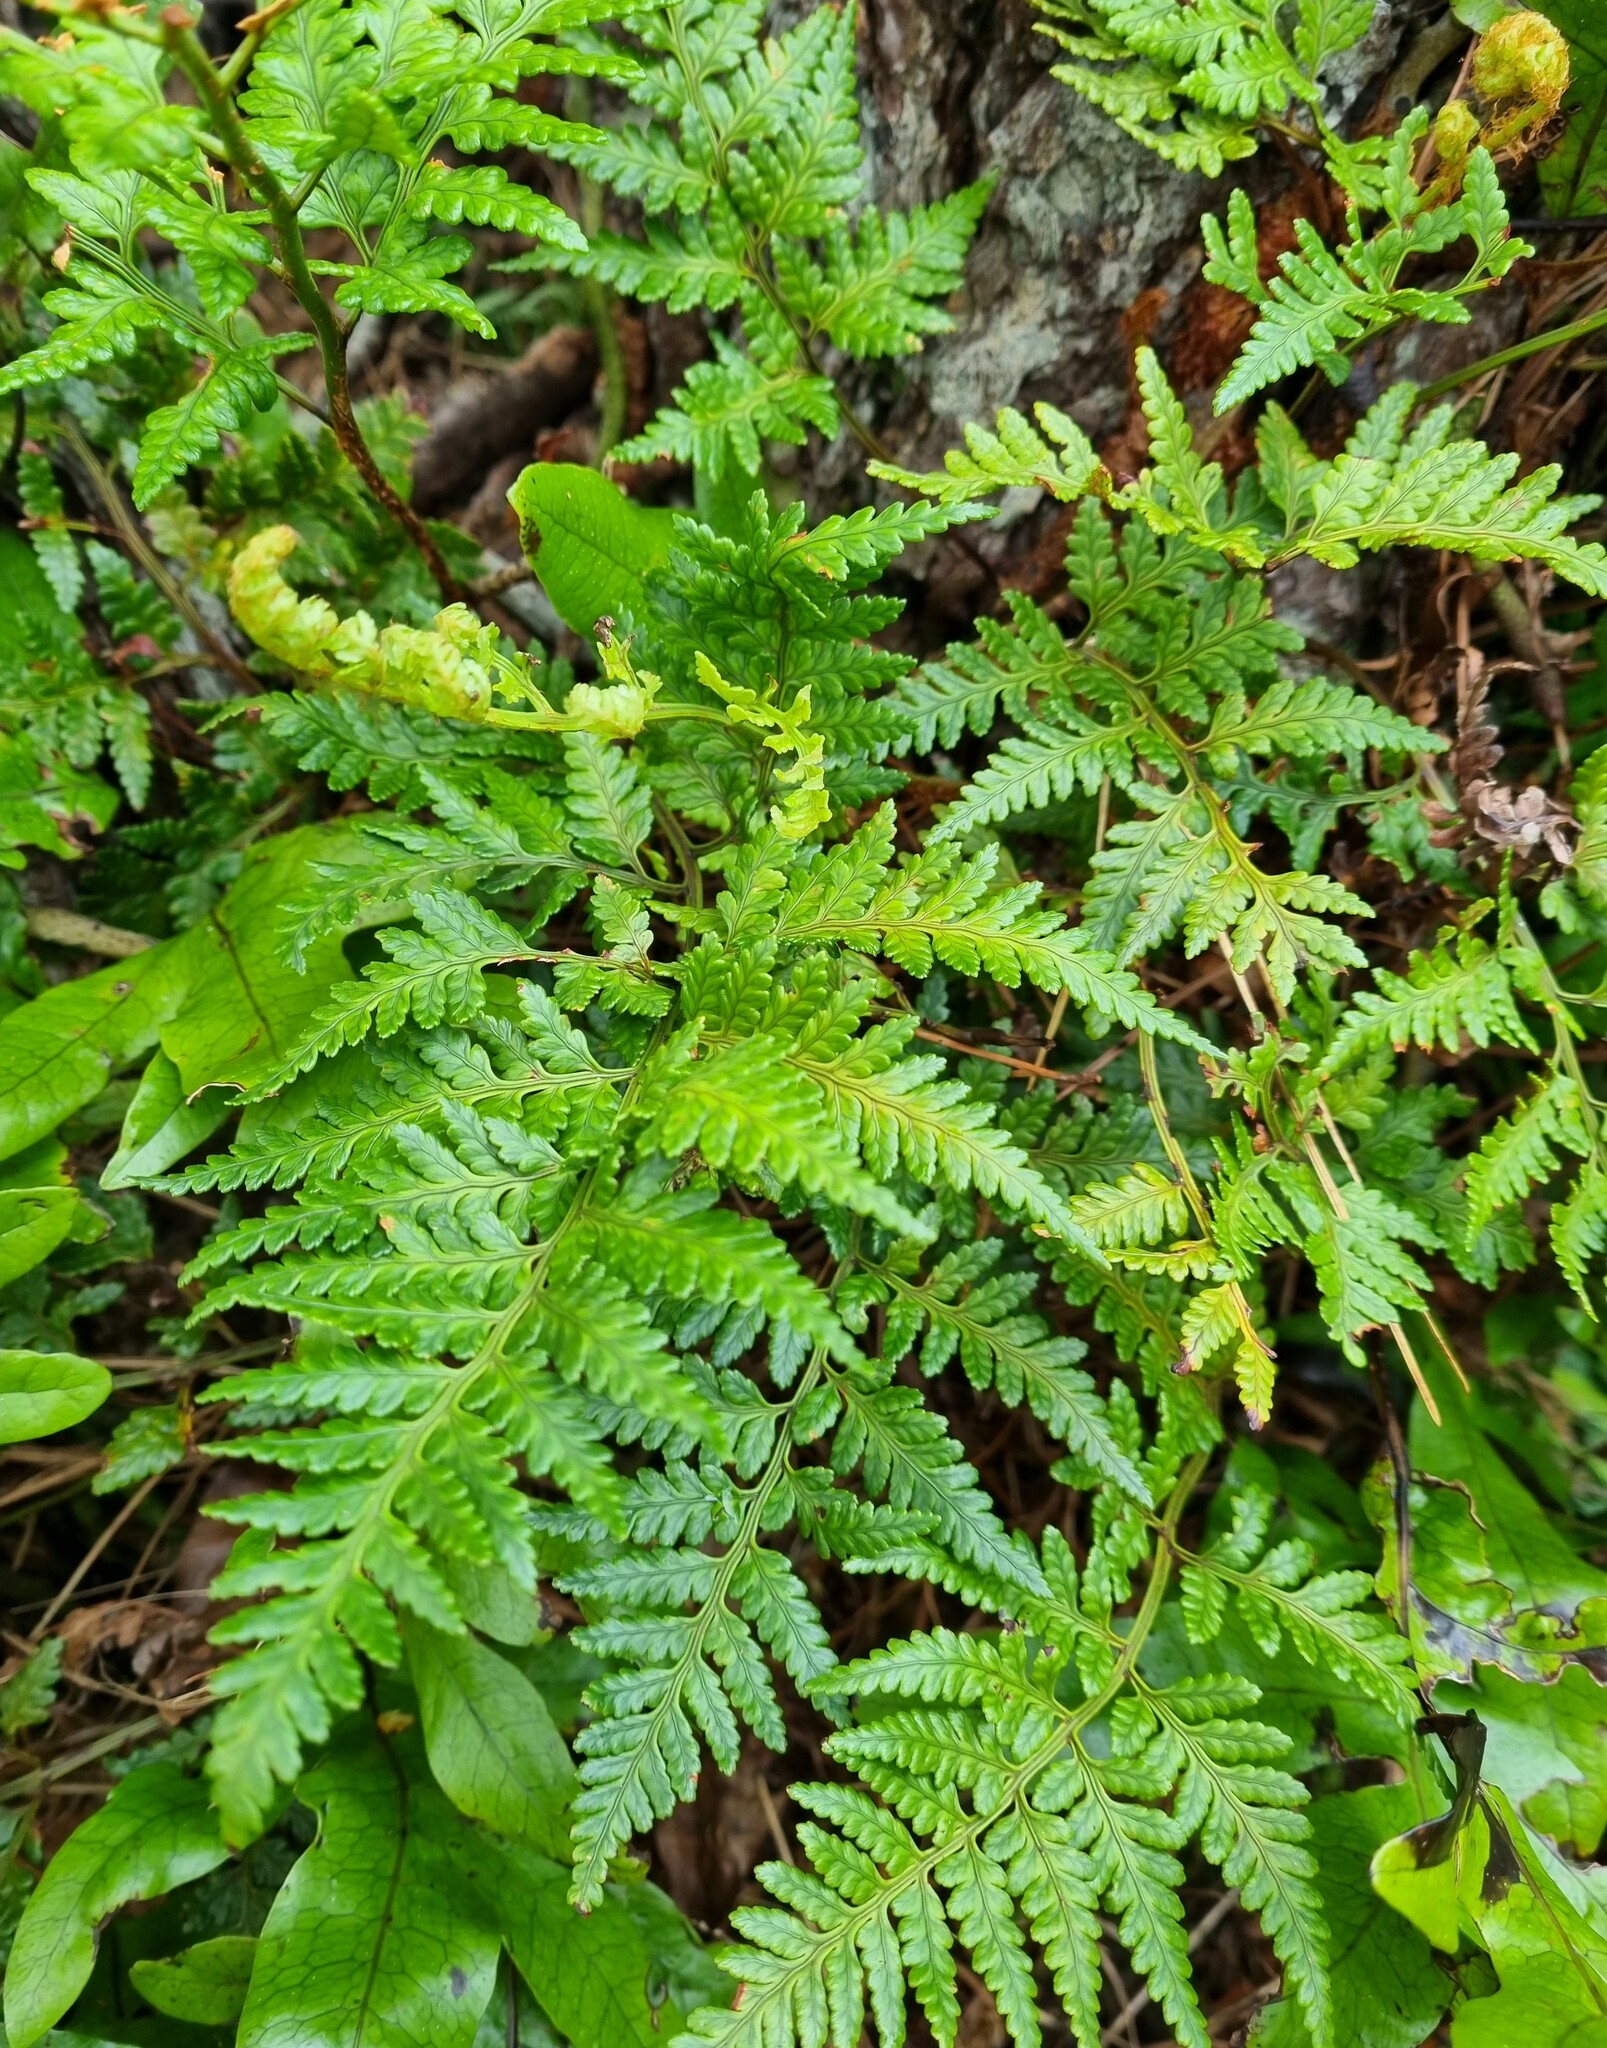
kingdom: Plantae
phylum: Tracheophyta
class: Polypodiopsida
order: Polypodiales
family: Dryopteridaceae
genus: Rumohra
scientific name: Rumohra adiantiformis
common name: Leather fern
